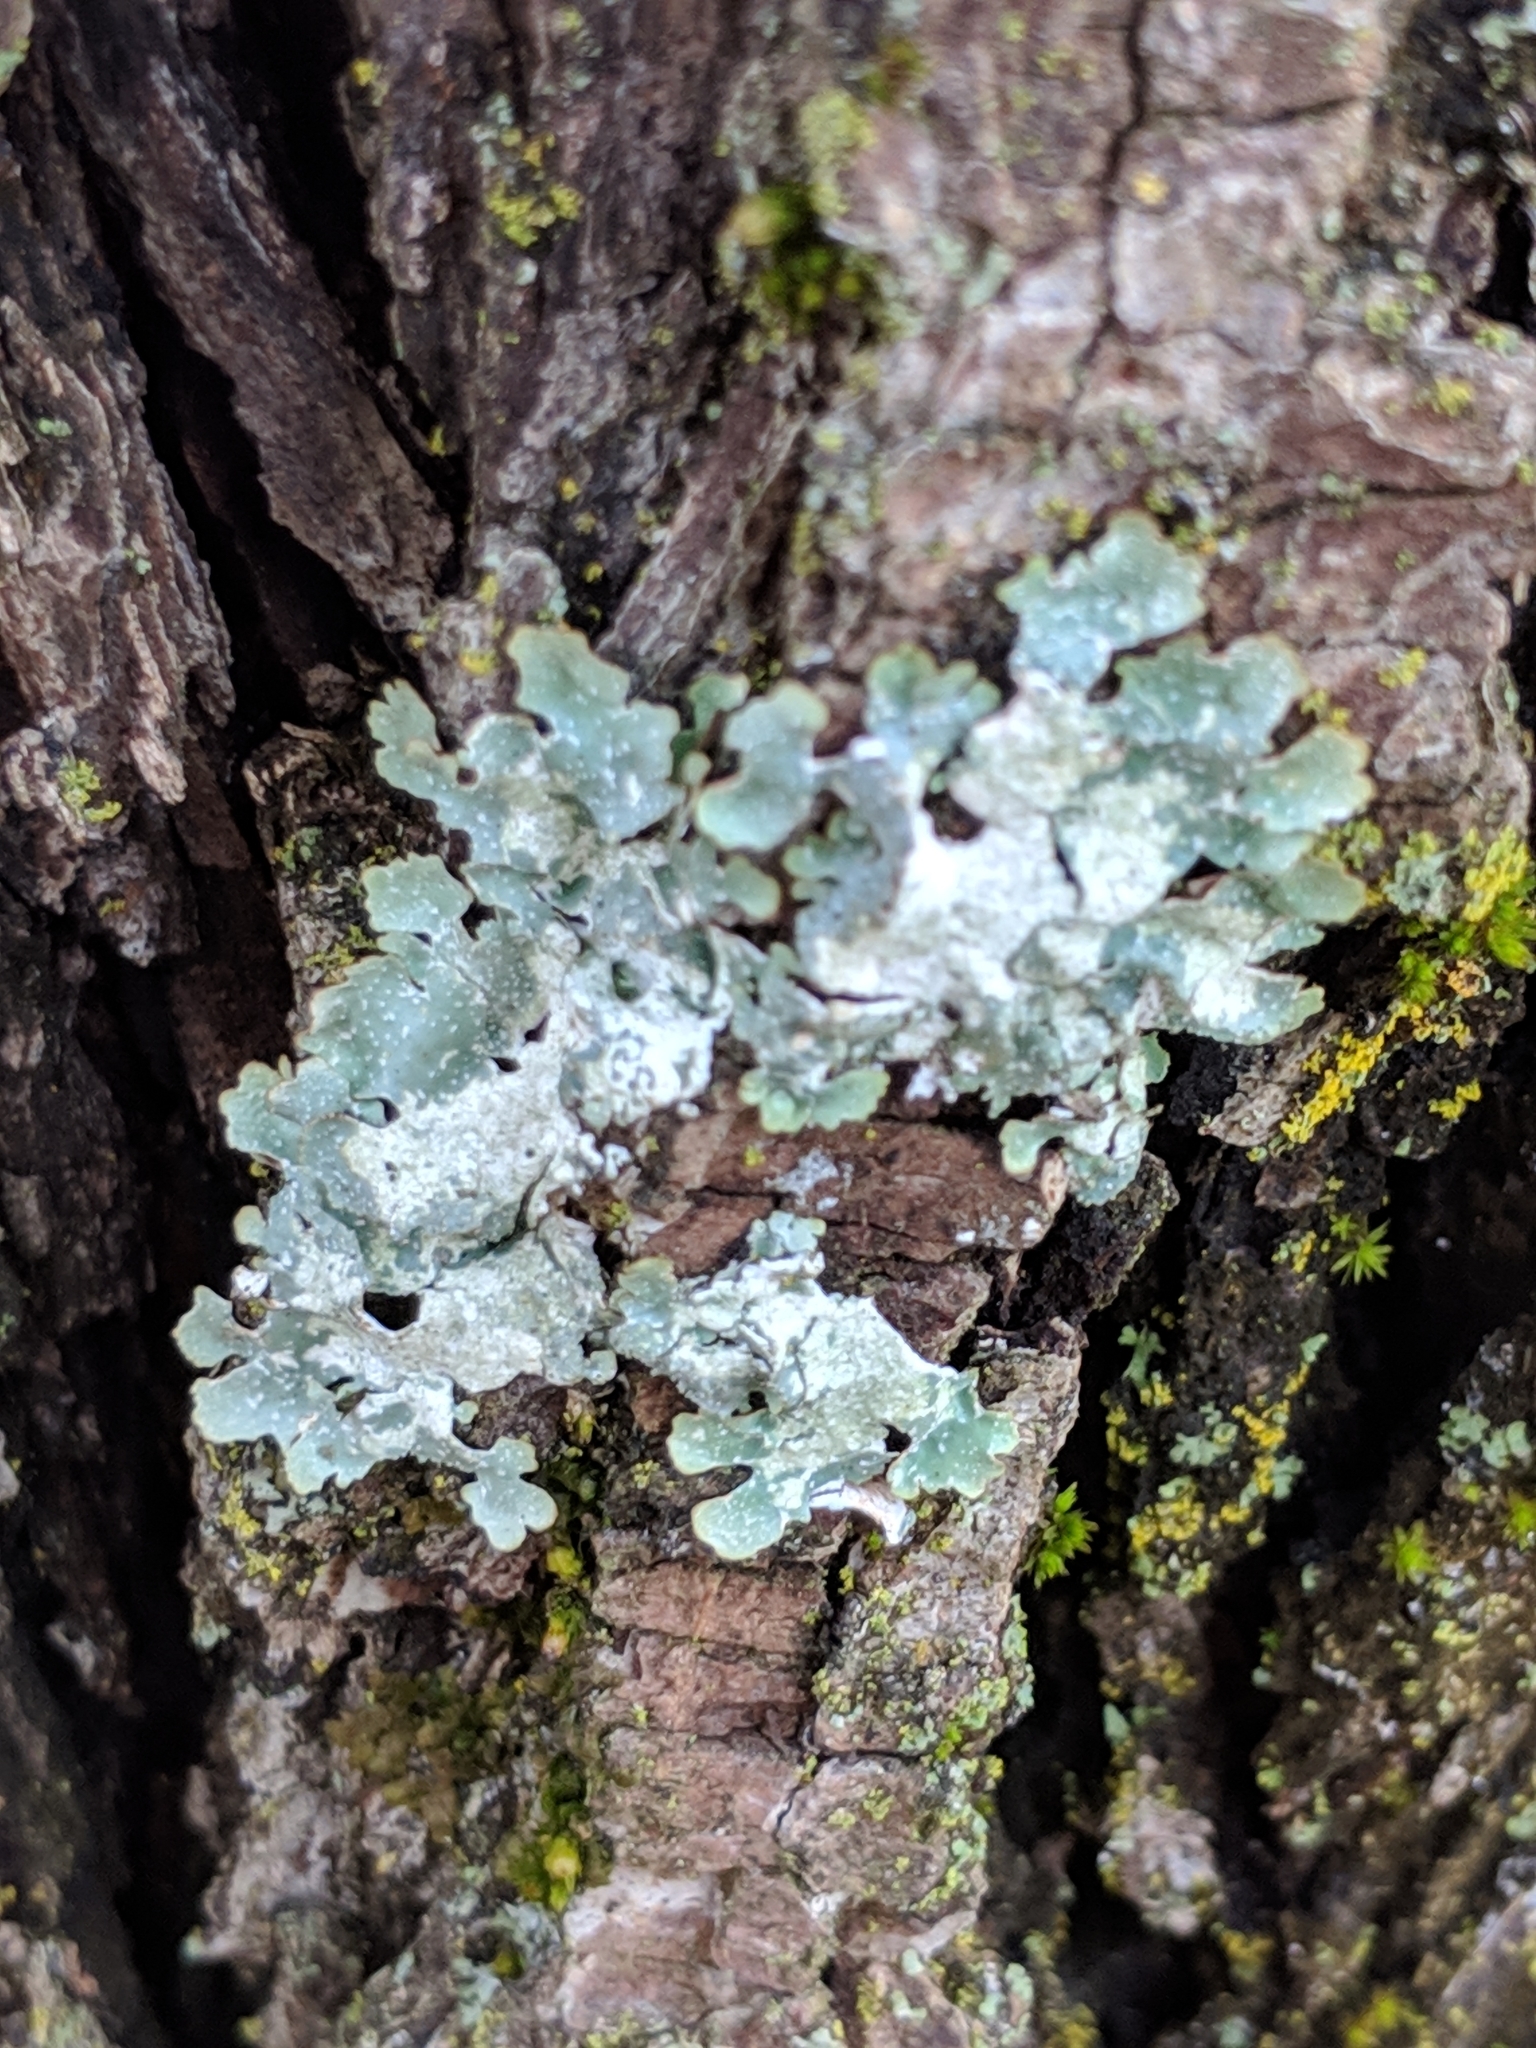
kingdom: Fungi
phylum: Ascomycota
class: Lecanoromycetes
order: Lecanorales
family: Parmeliaceae
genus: Punctelia
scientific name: Punctelia rudecta
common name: Rough speckled shield lichen
